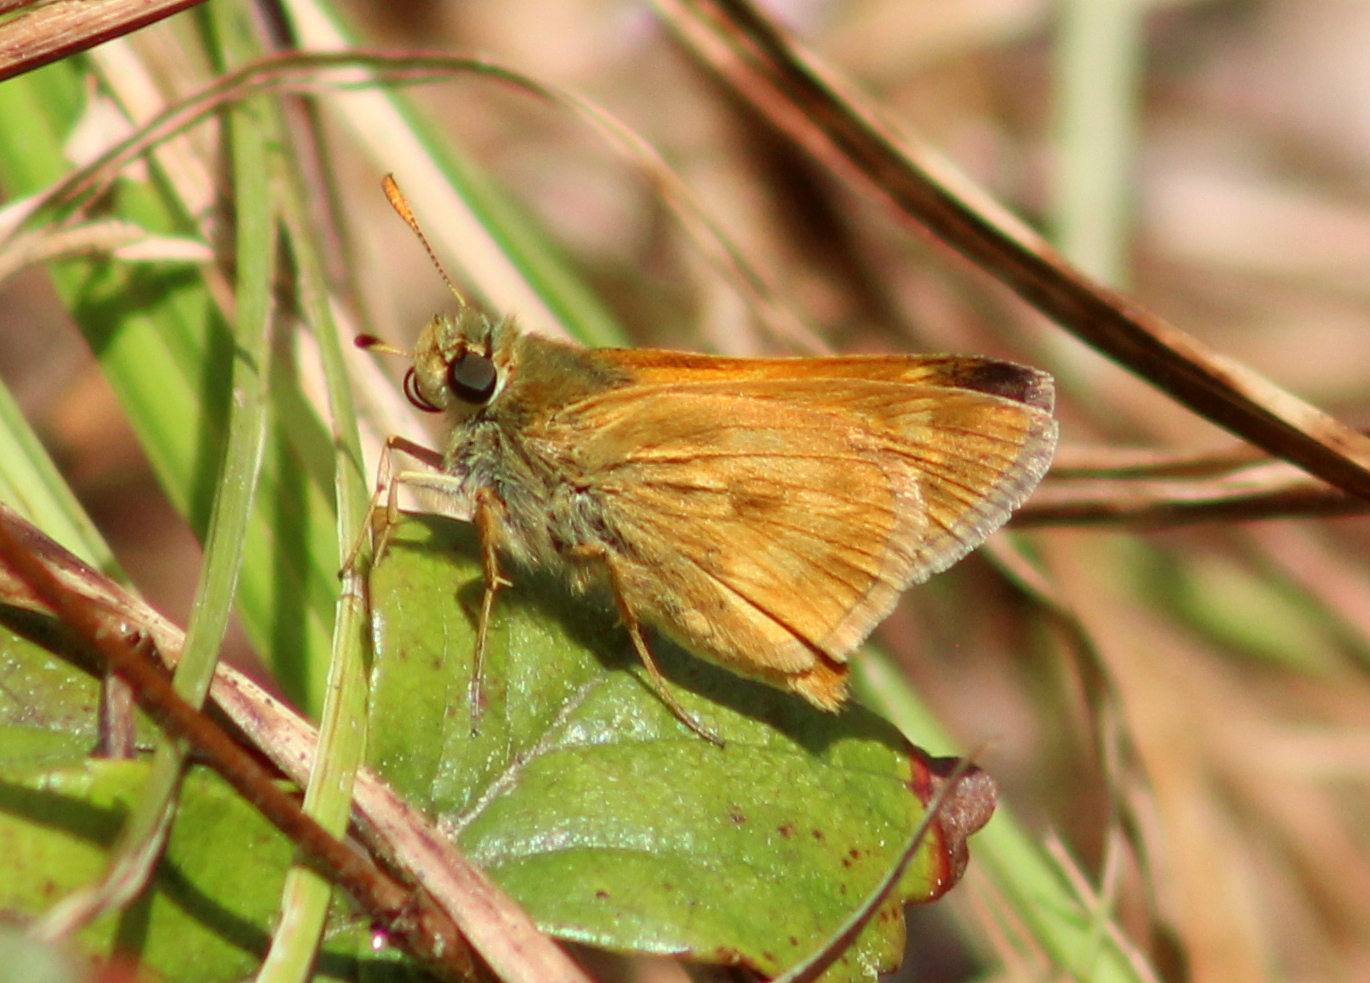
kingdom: Animalia
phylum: Arthropoda
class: Insecta
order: Lepidoptera
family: Hesperiidae
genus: Polites
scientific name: Polites mystic
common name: Long dash
